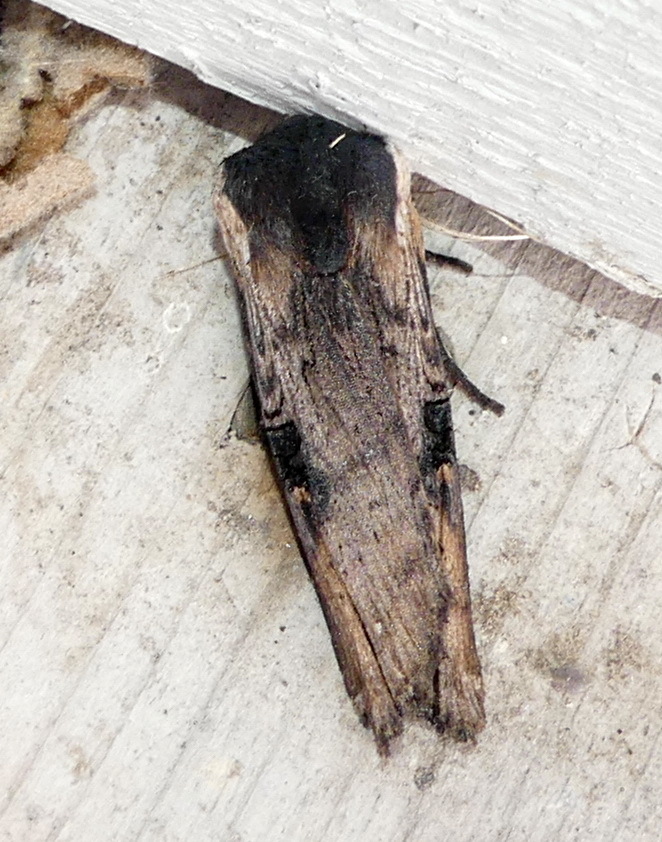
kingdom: Animalia
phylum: Arthropoda
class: Insecta
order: Lepidoptera
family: Noctuidae
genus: Xylena
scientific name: Xylena cineritia
